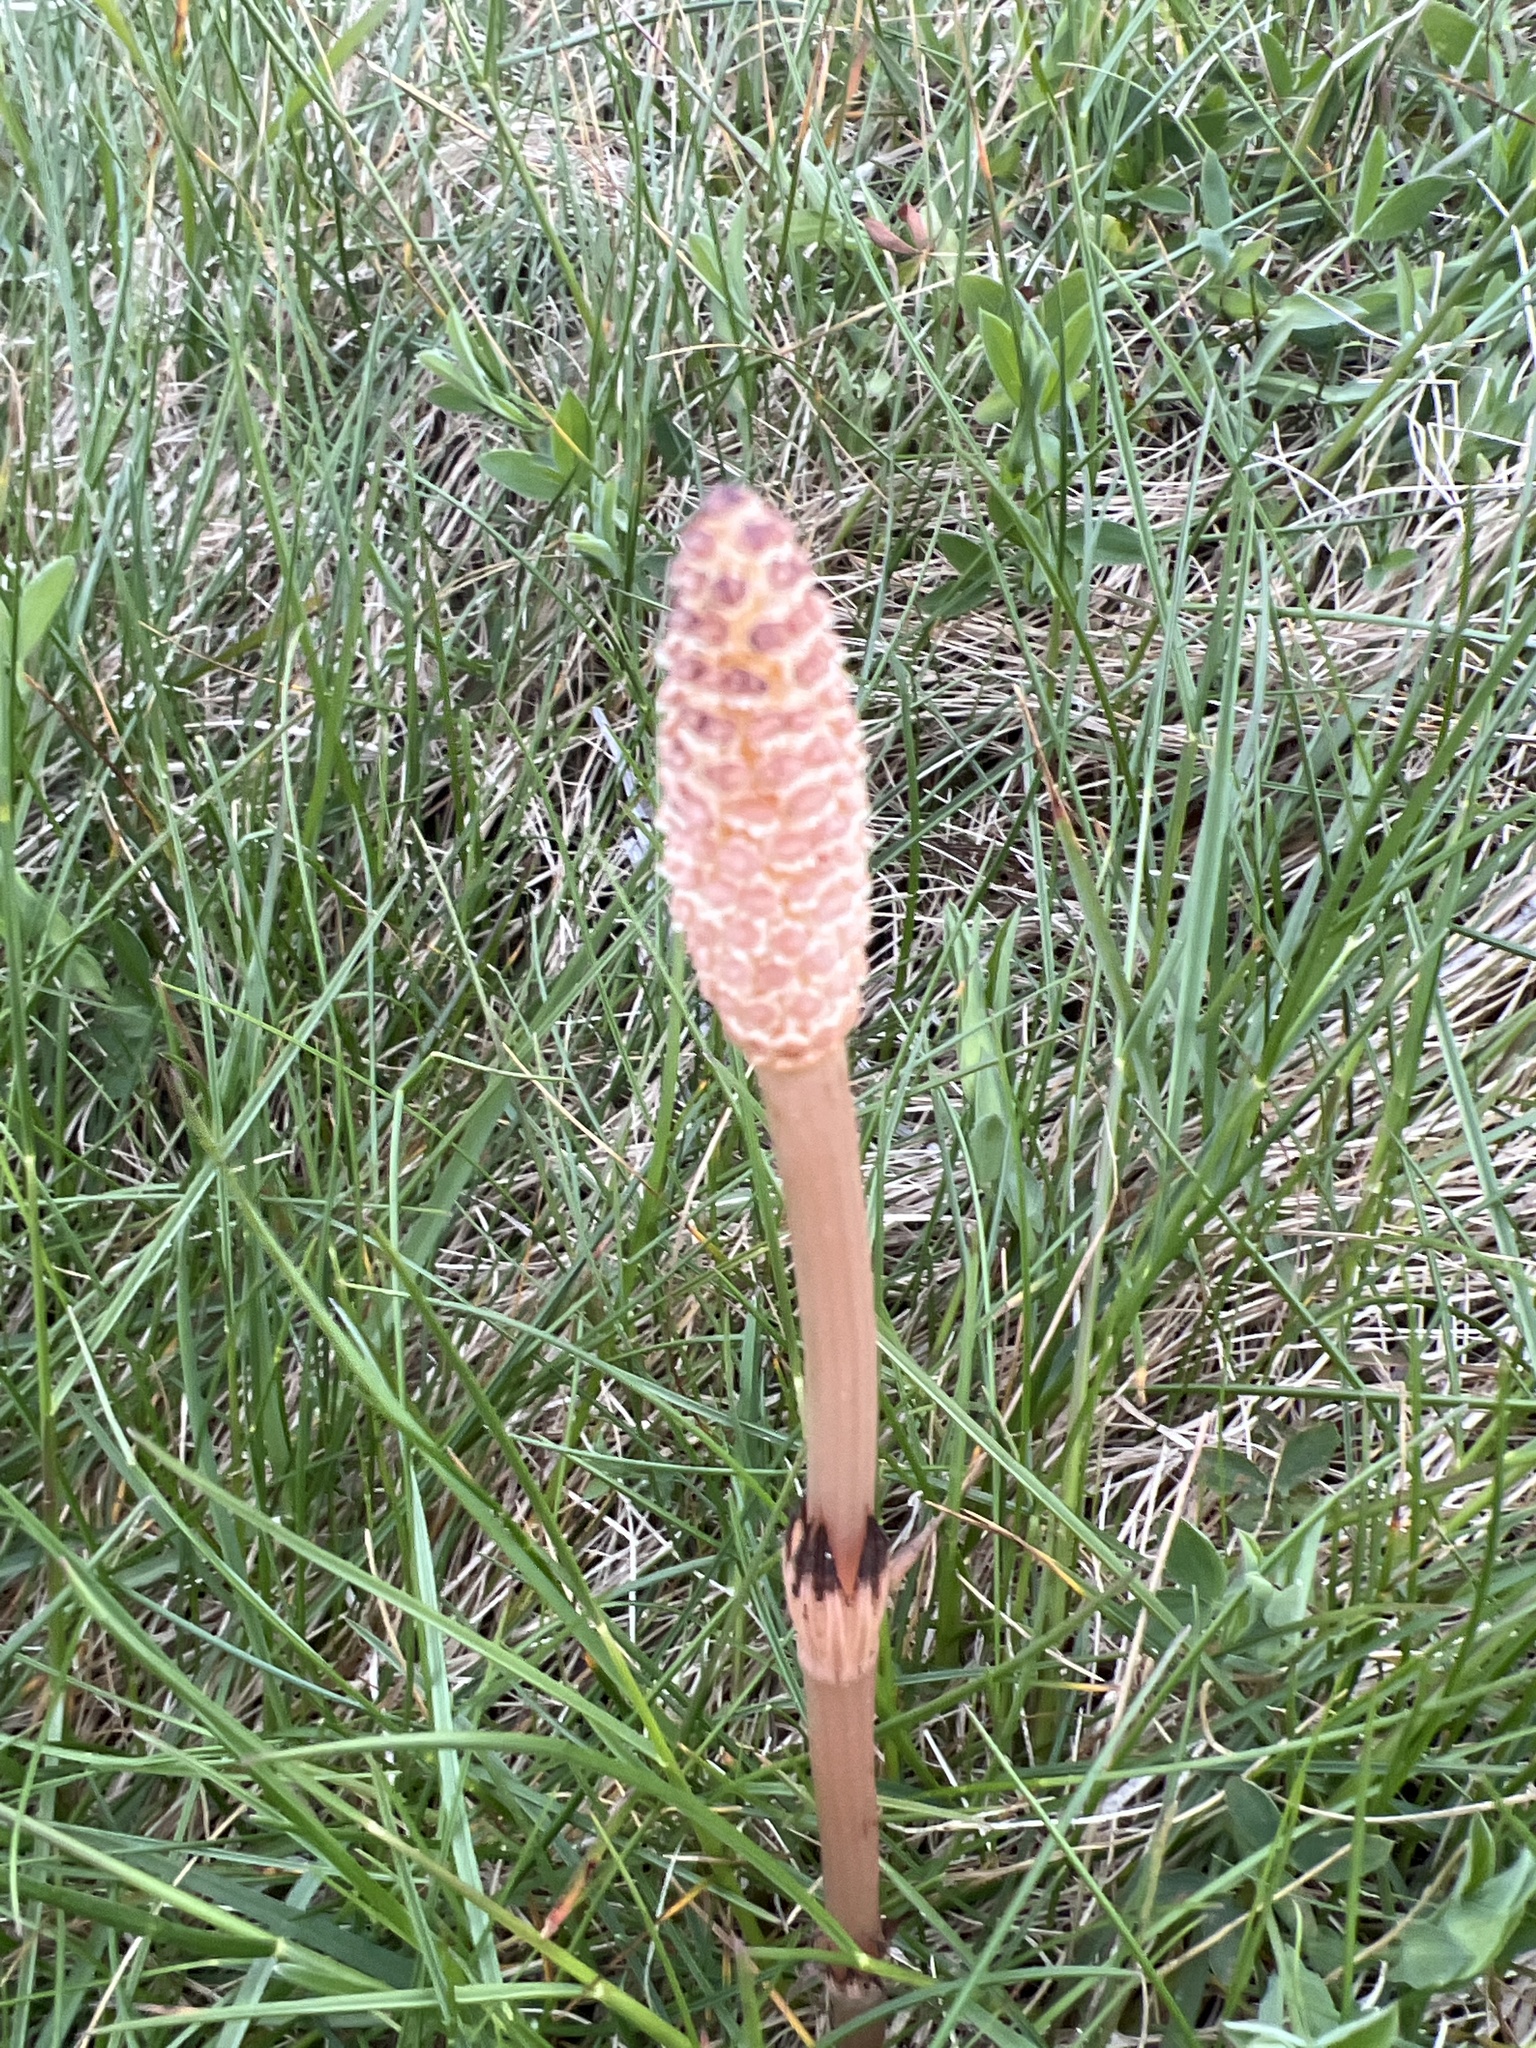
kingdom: Plantae
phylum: Tracheophyta
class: Polypodiopsida
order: Equisetales
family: Equisetaceae
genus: Equisetum
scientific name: Equisetum arvense
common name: Field horsetail
